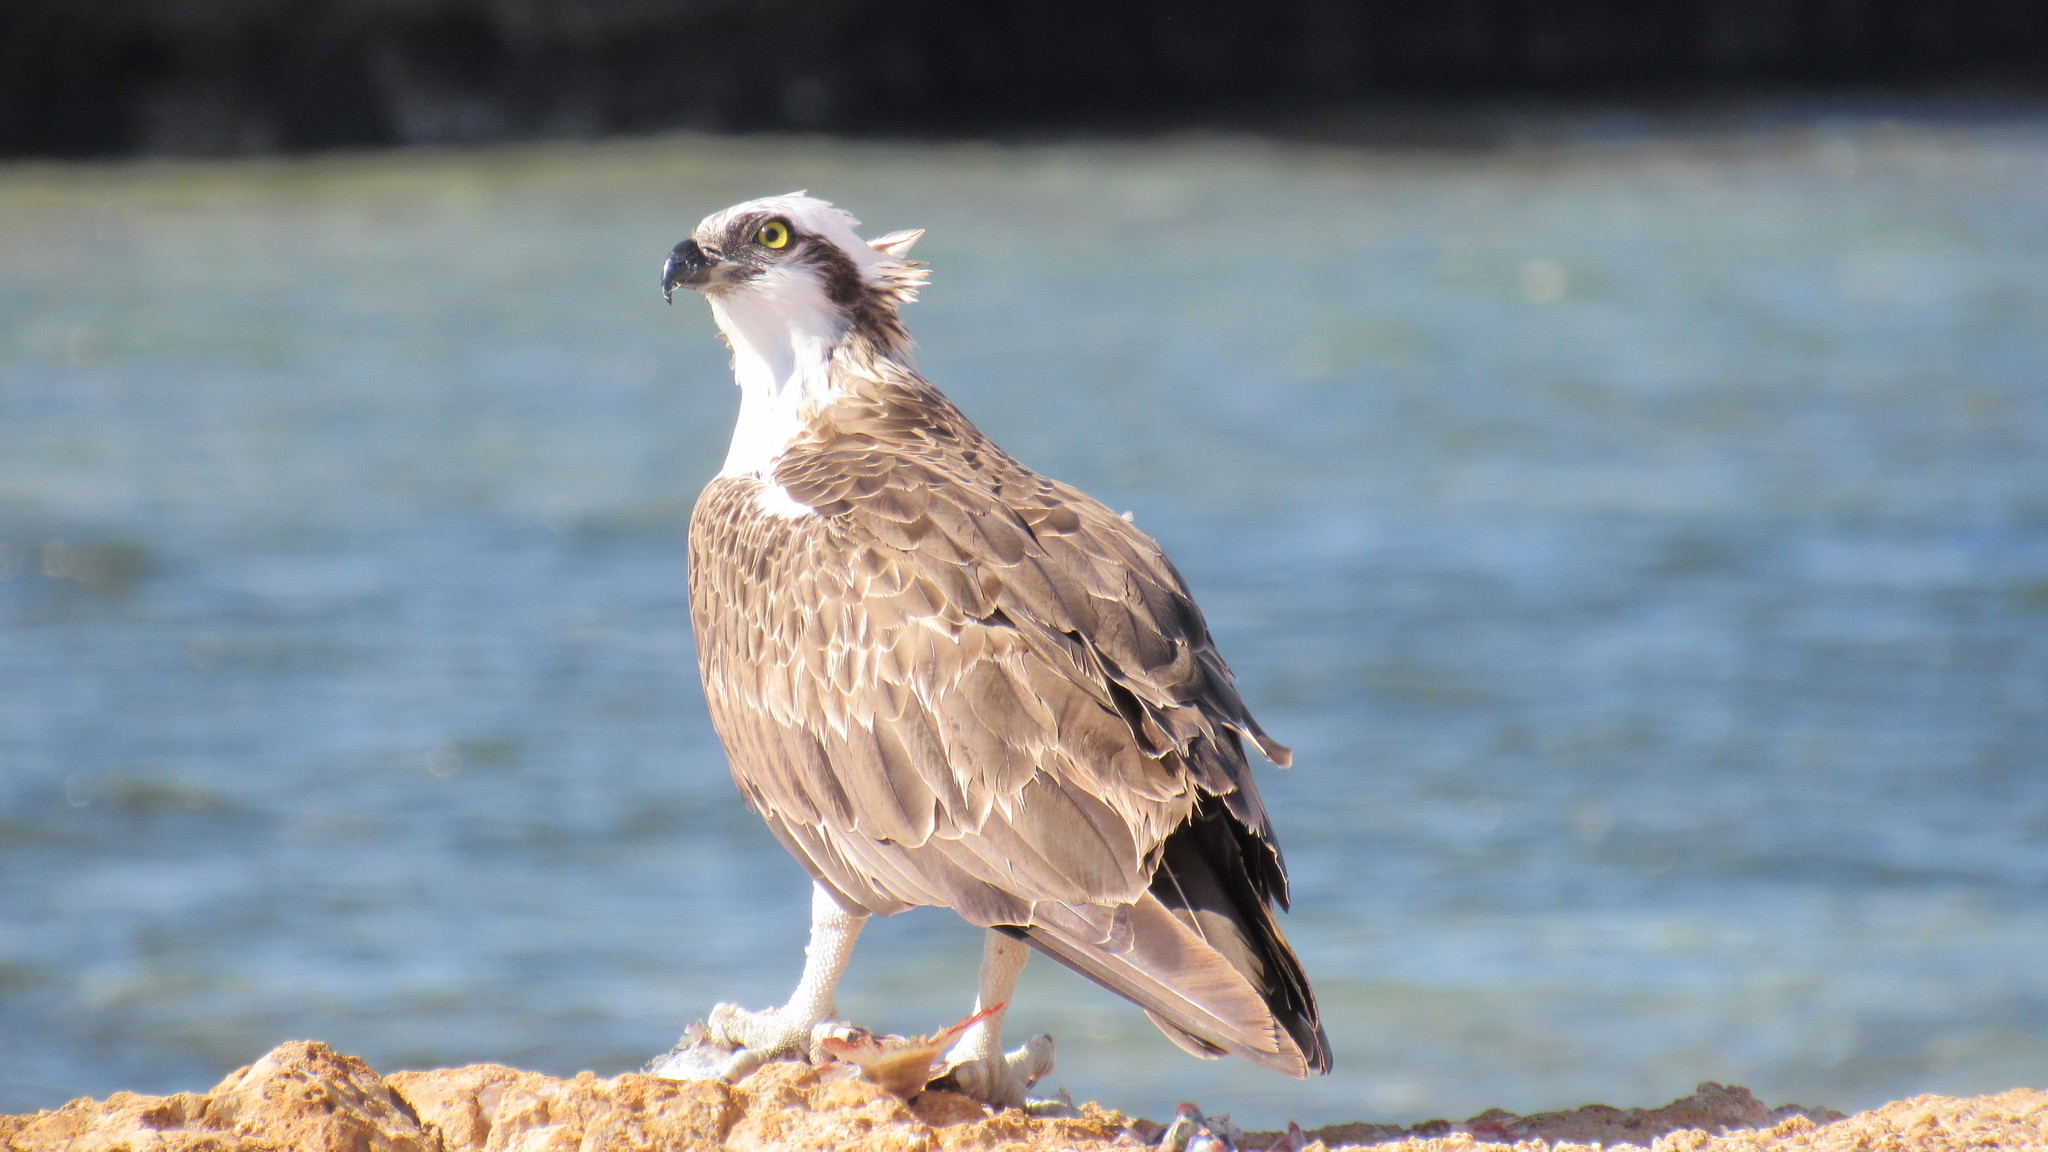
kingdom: Animalia
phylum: Chordata
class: Aves
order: Accipitriformes
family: Pandionidae
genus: Pandion
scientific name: Pandion haliaetus
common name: Osprey
